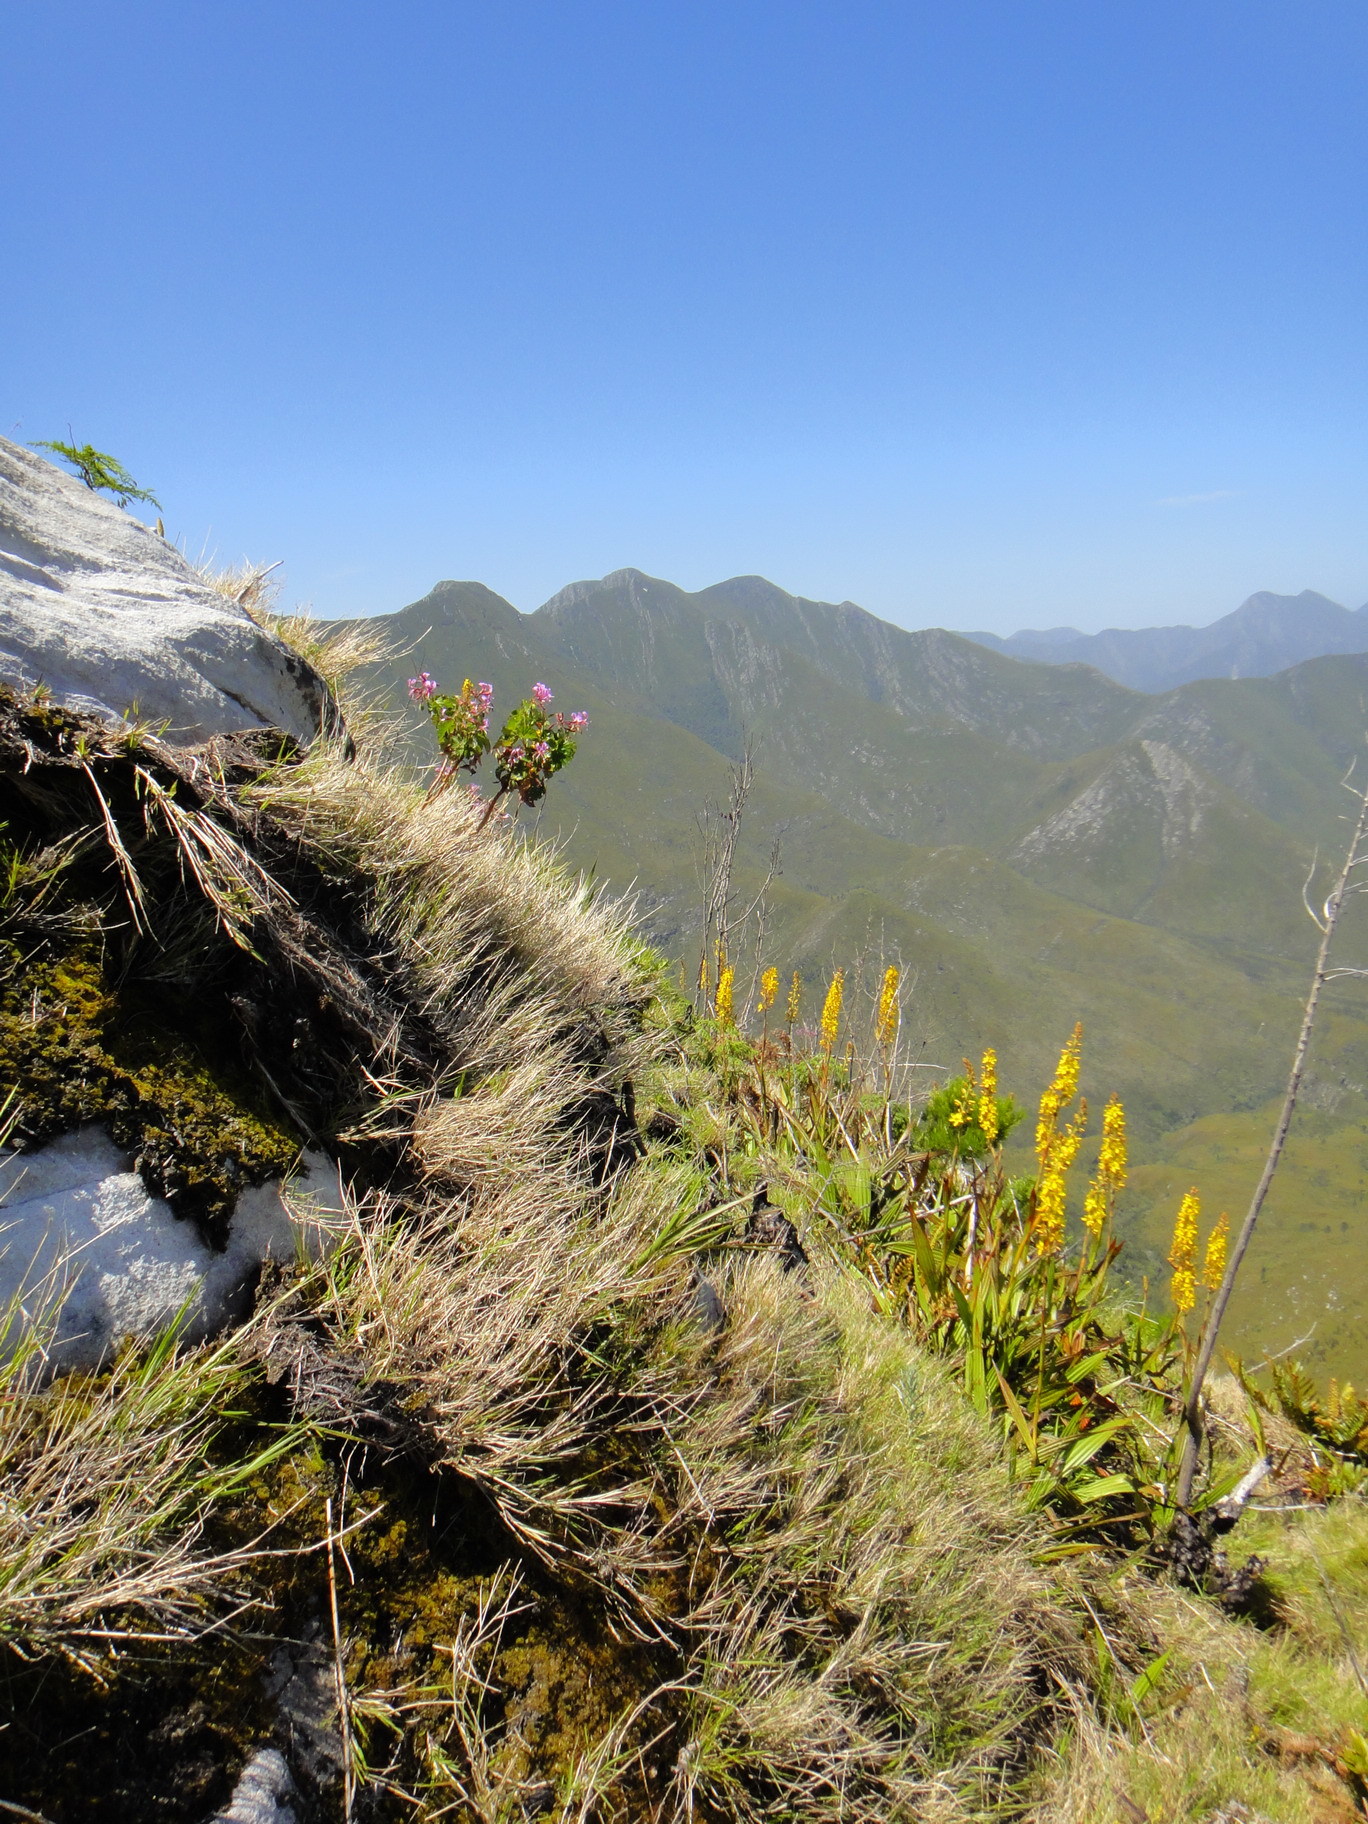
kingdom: Plantae
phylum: Tracheophyta
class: Liliopsida
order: Commelinales
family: Haemodoraceae
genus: Wachendorfia
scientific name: Wachendorfia thyrsiflora
